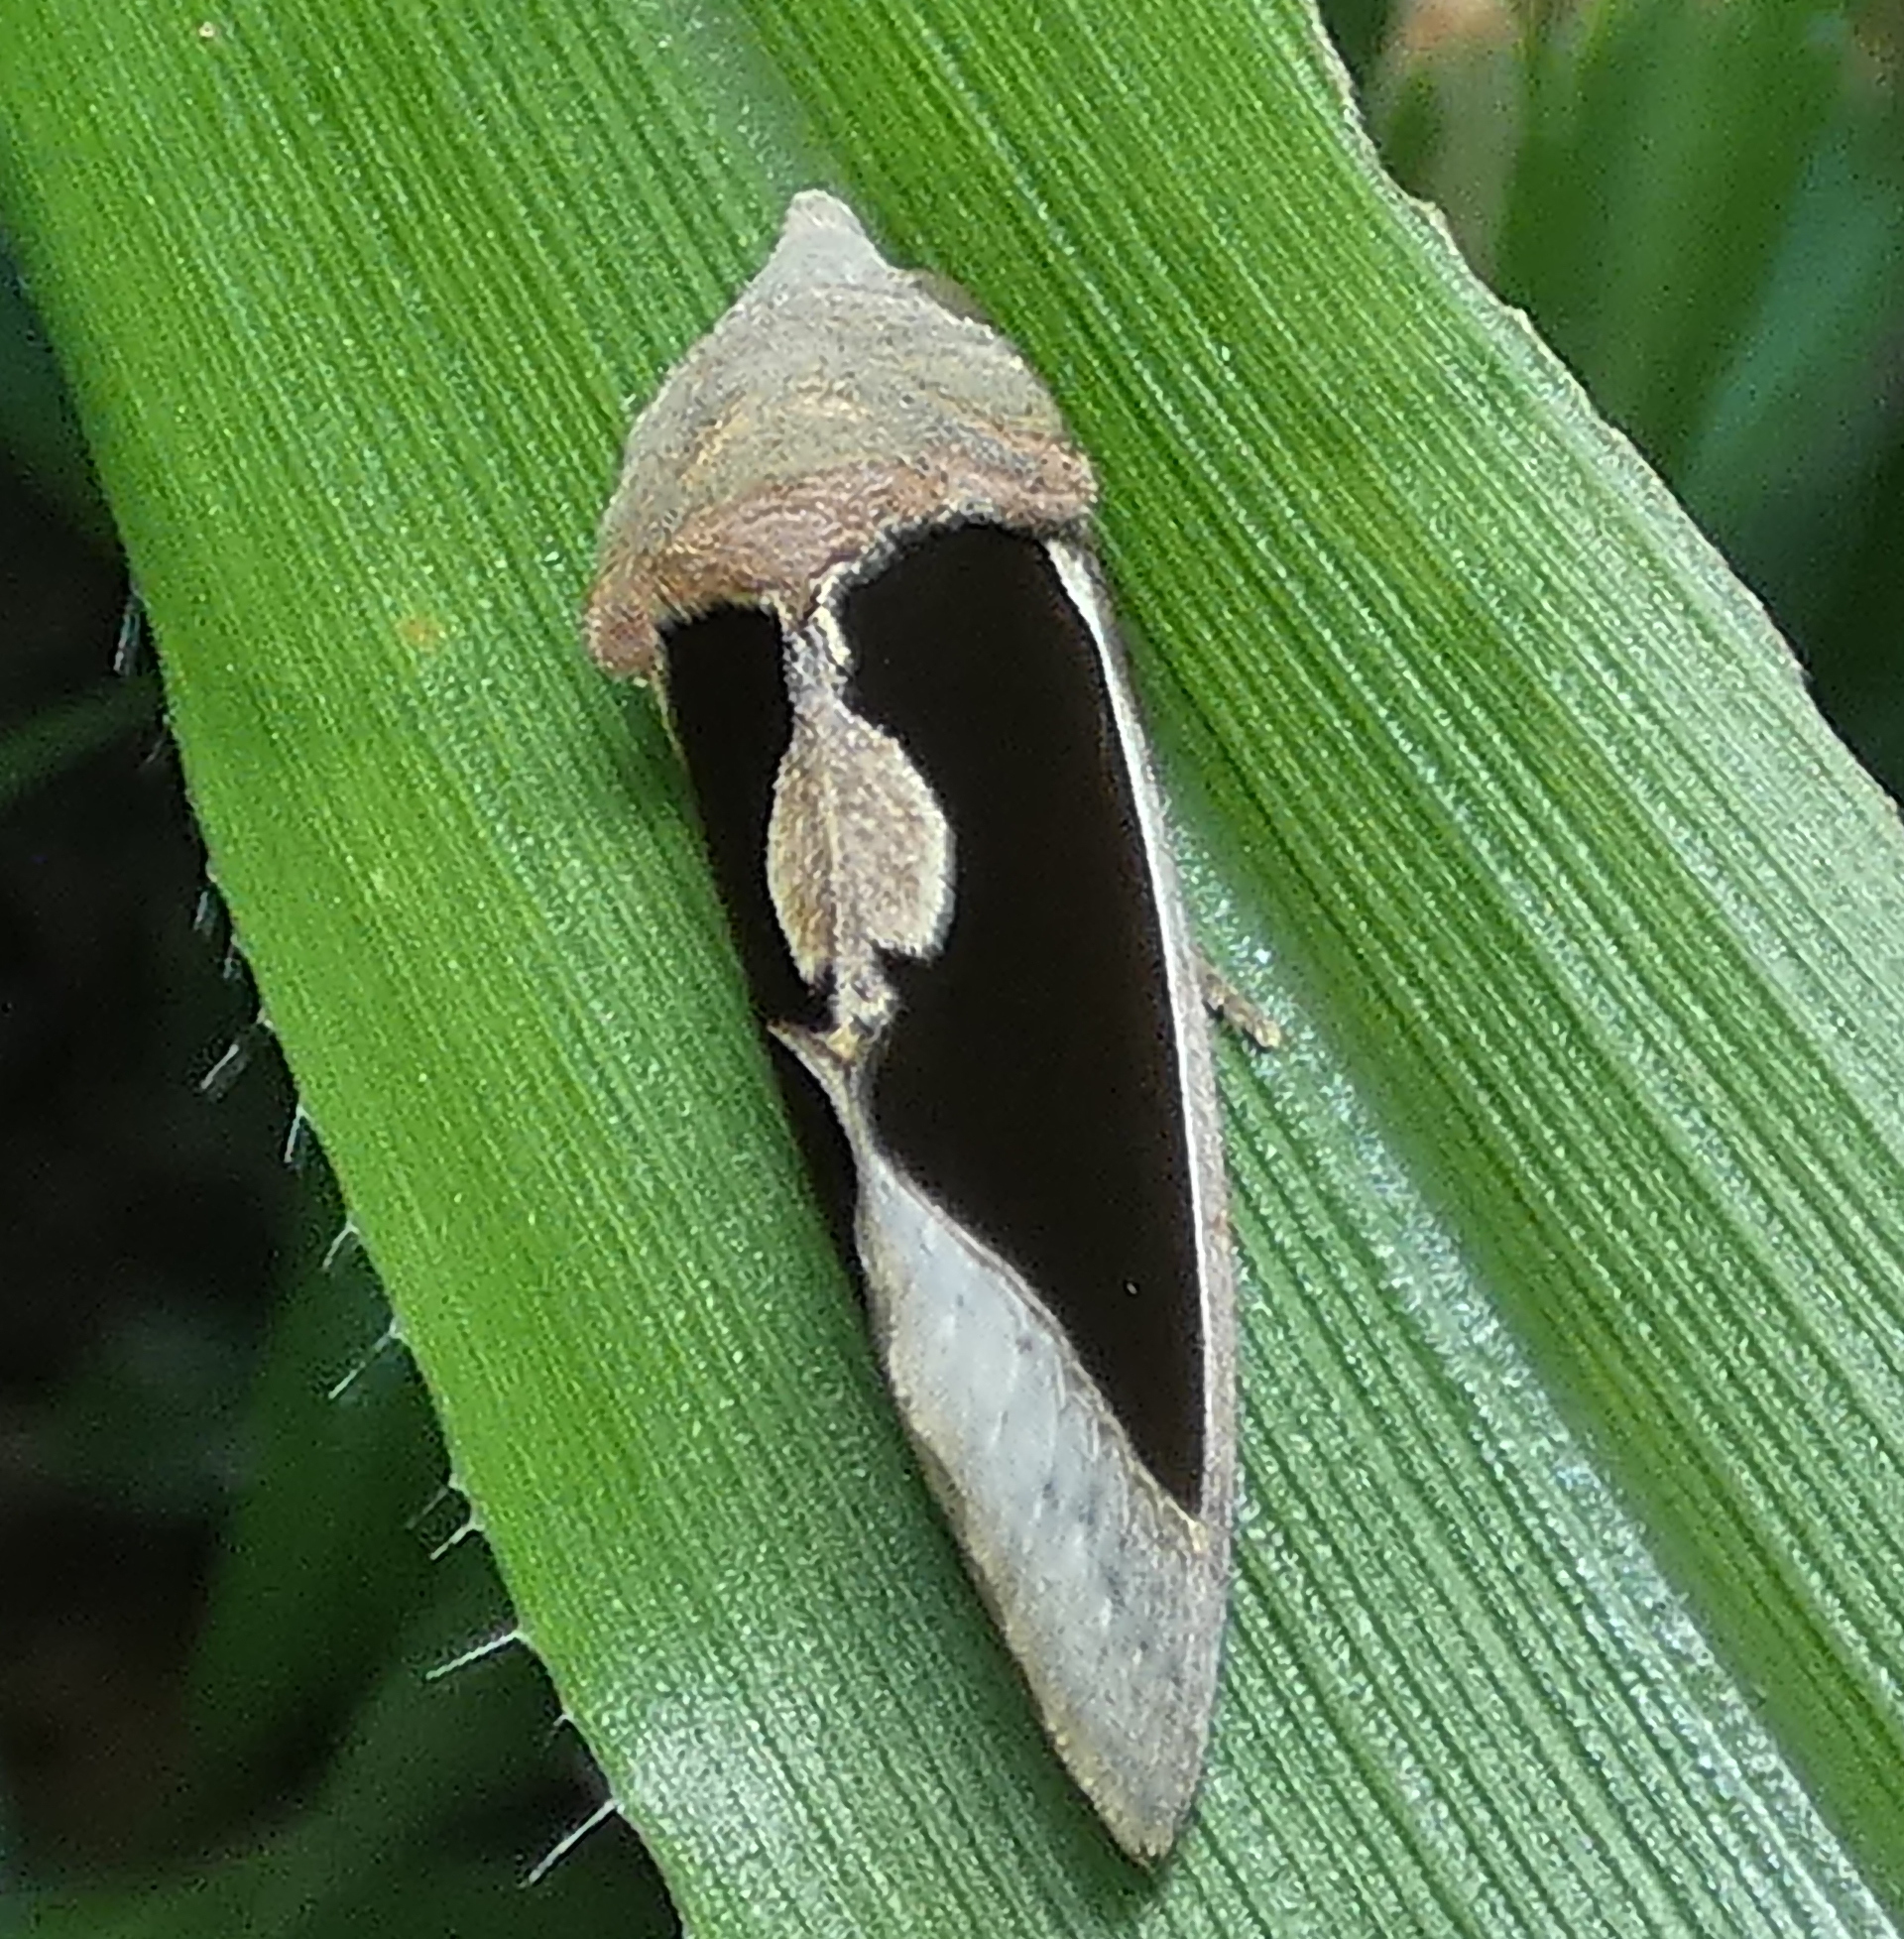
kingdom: Animalia
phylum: Arthropoda
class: Insecta
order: Lepidoptera
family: Erebidae
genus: Gonodonta
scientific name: Gonodonta sinaldus
